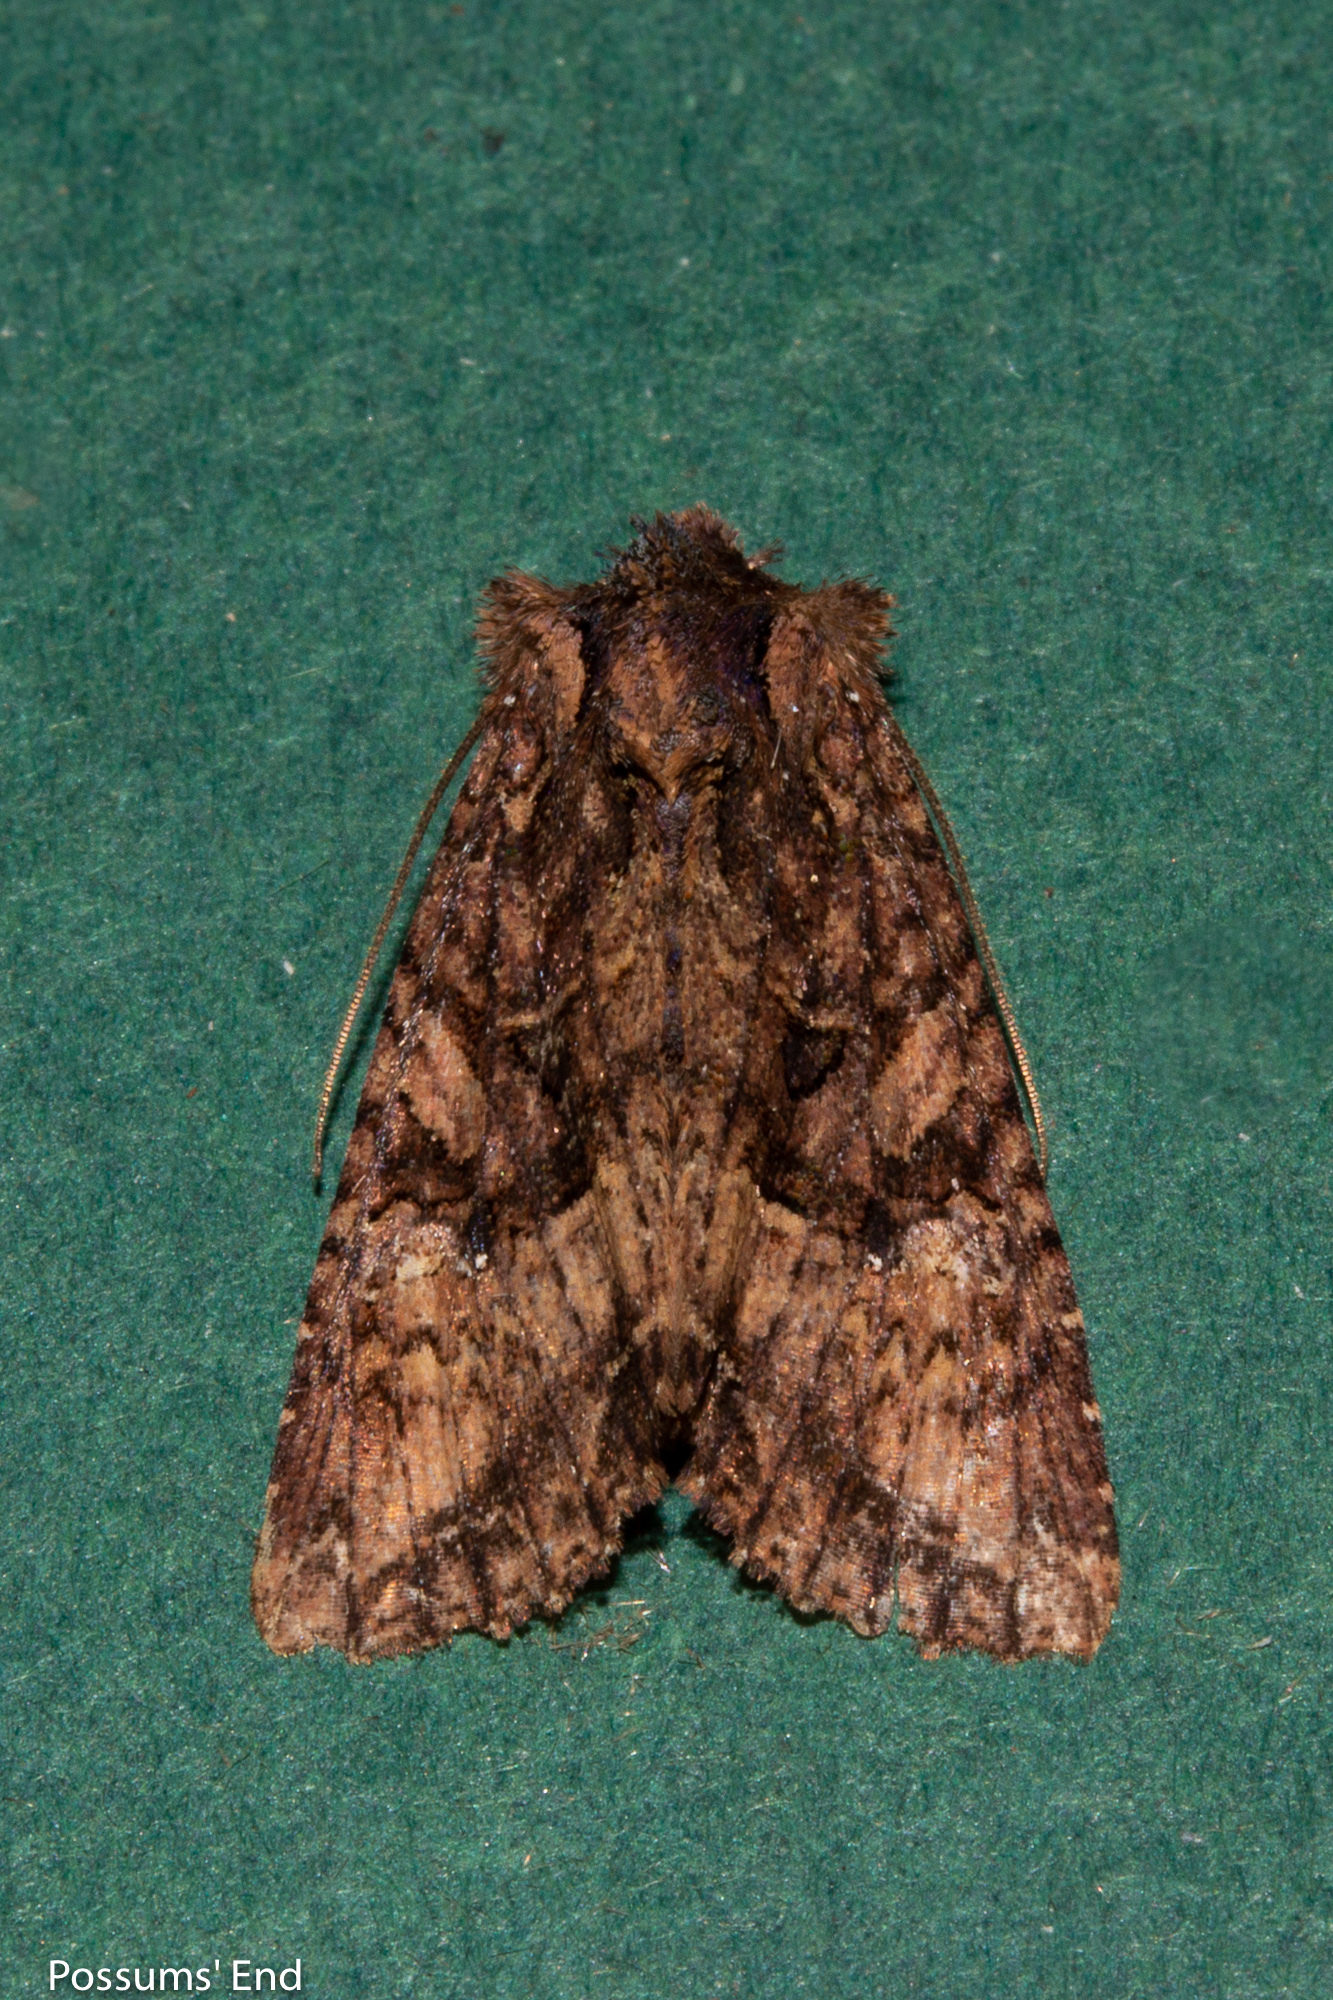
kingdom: Animalia
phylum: Arthropoda
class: Insecta
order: Lepidoptera
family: Noctuidae
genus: Meterana
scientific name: Meterana ochthistis
